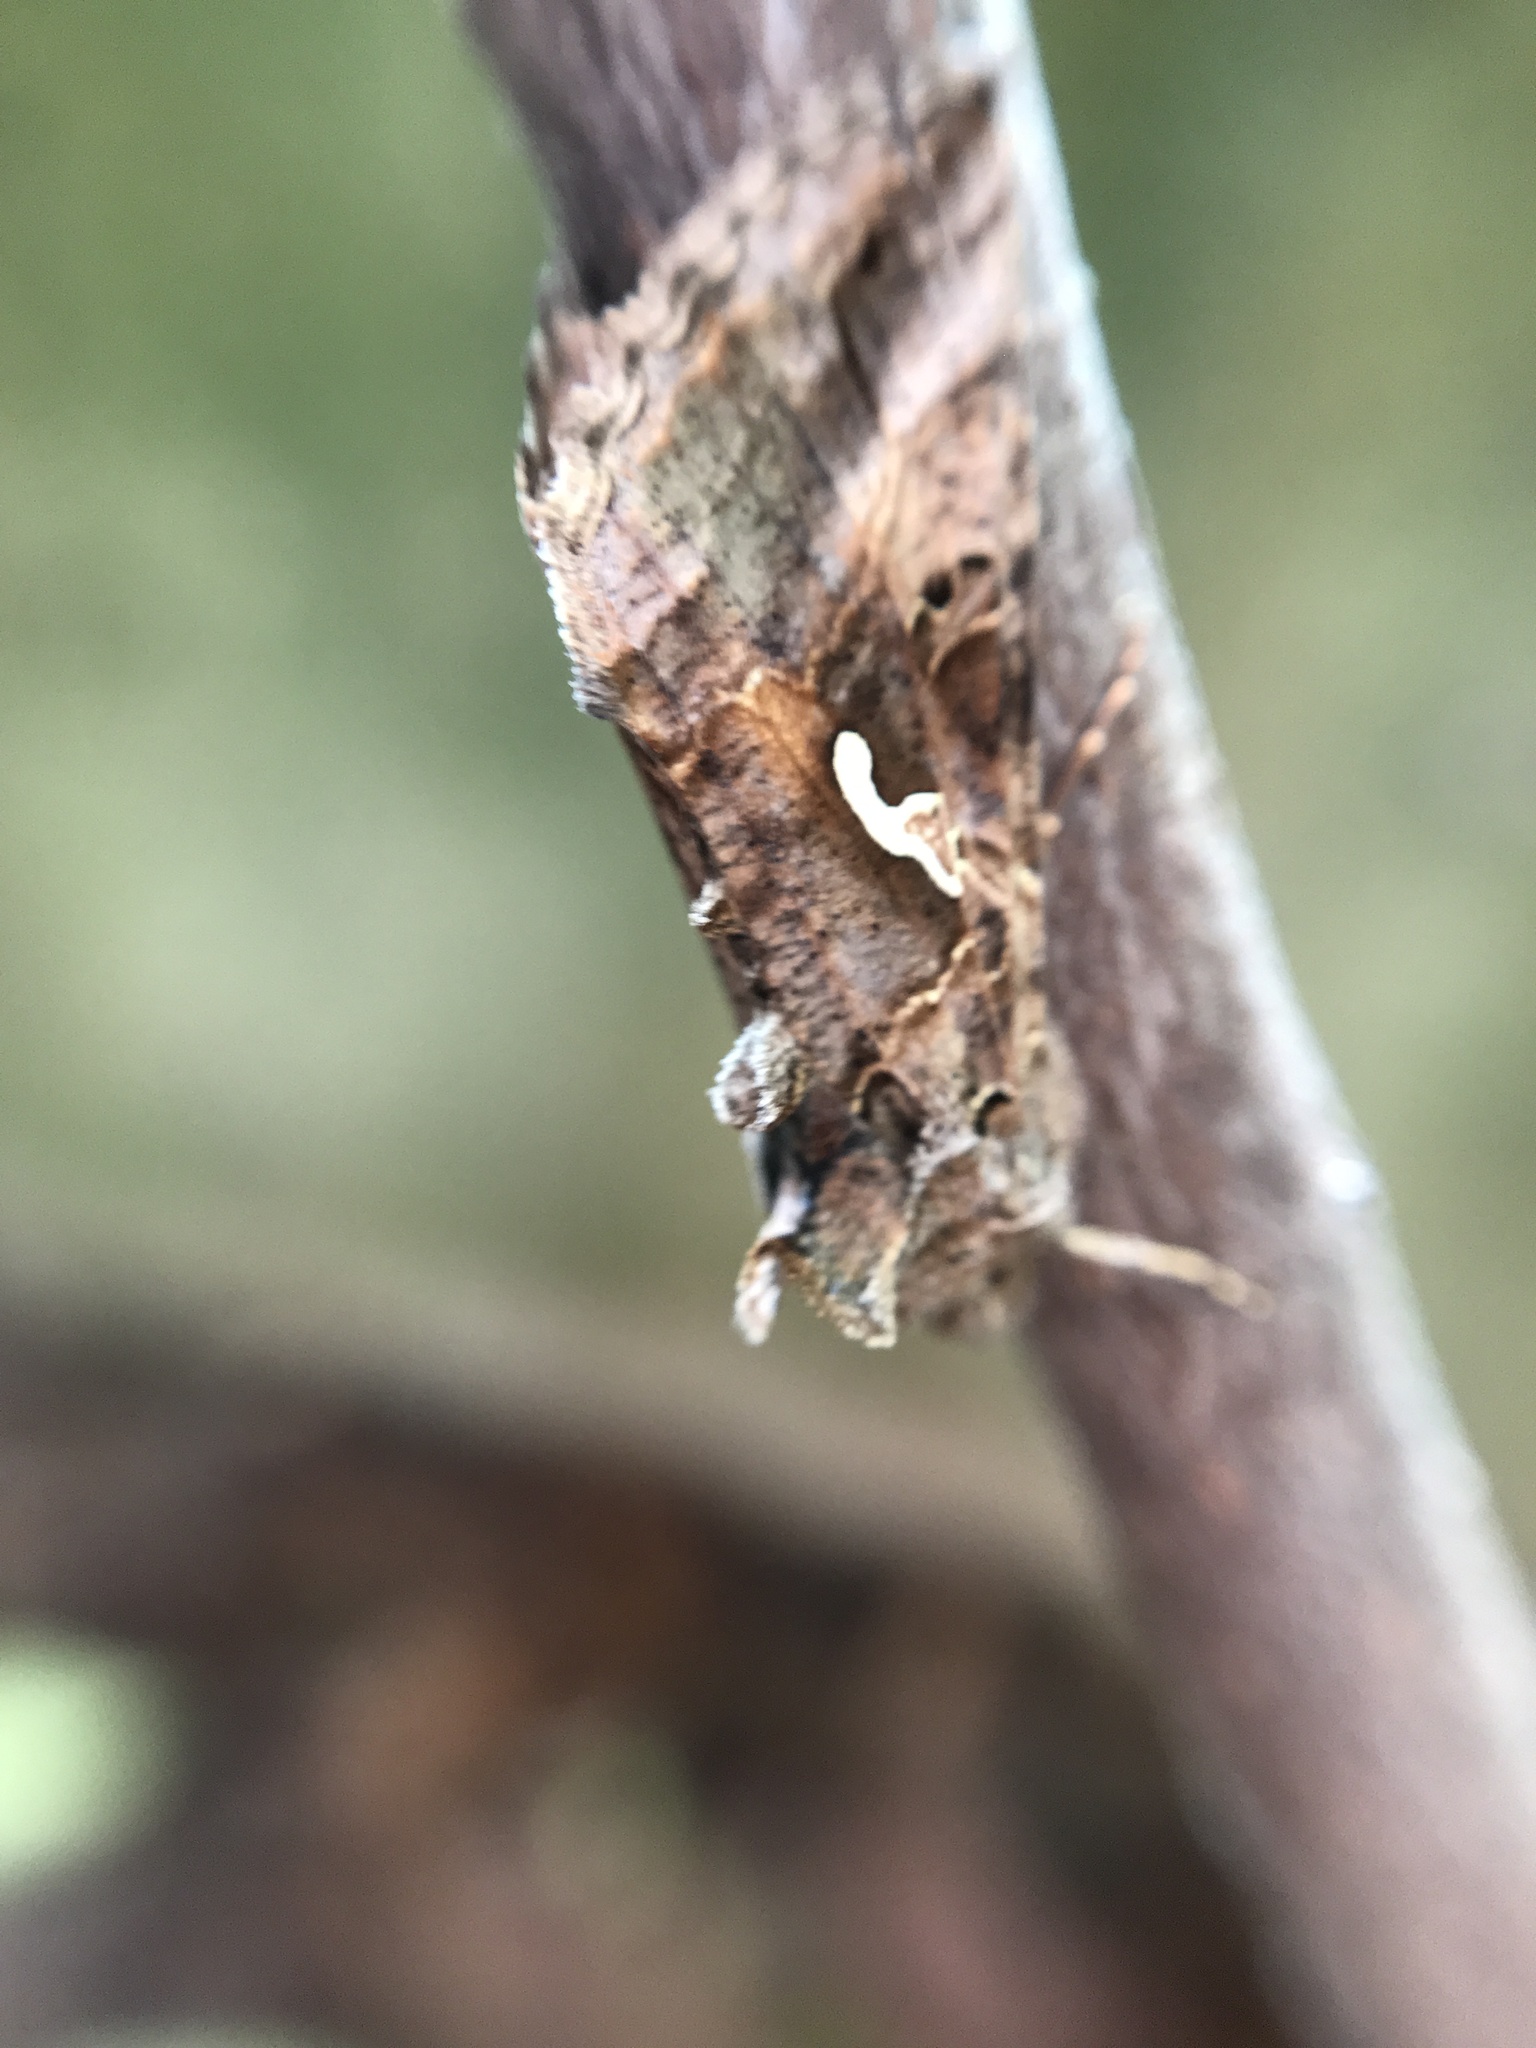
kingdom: Animalia
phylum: Arthropoda
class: Insecta
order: Lepidoptera
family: Noctuidae
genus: Autographa
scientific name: Autographa gamma
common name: Silver y
